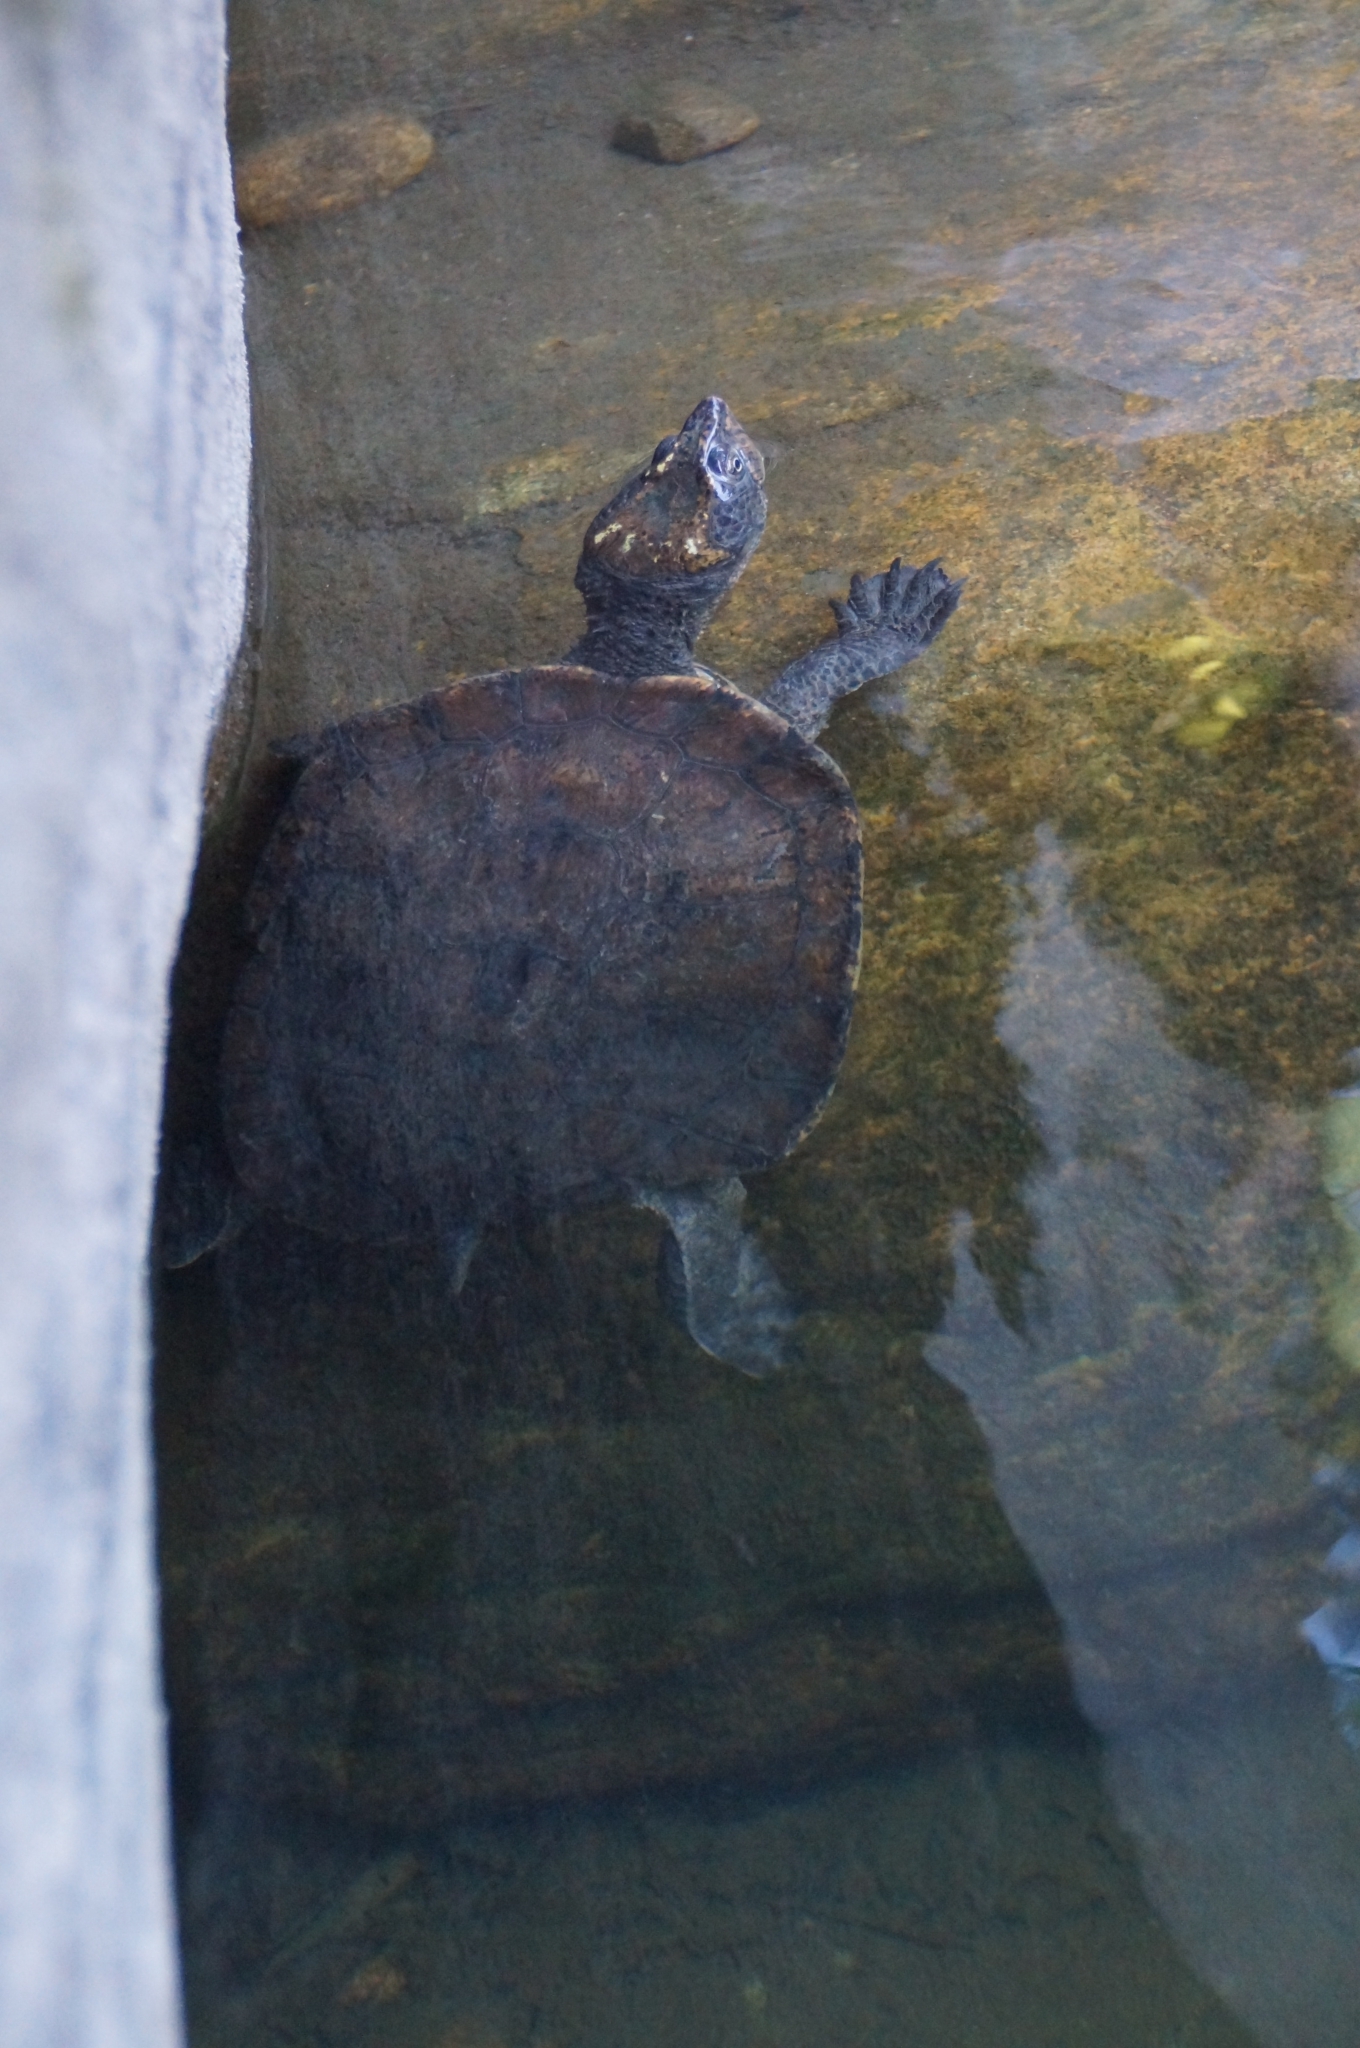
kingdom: Animalia
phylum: Chordata
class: Testudines
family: Chelidae
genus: Myuchelys
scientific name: Myuchelys latisternum
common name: Serrated snapping turtle
